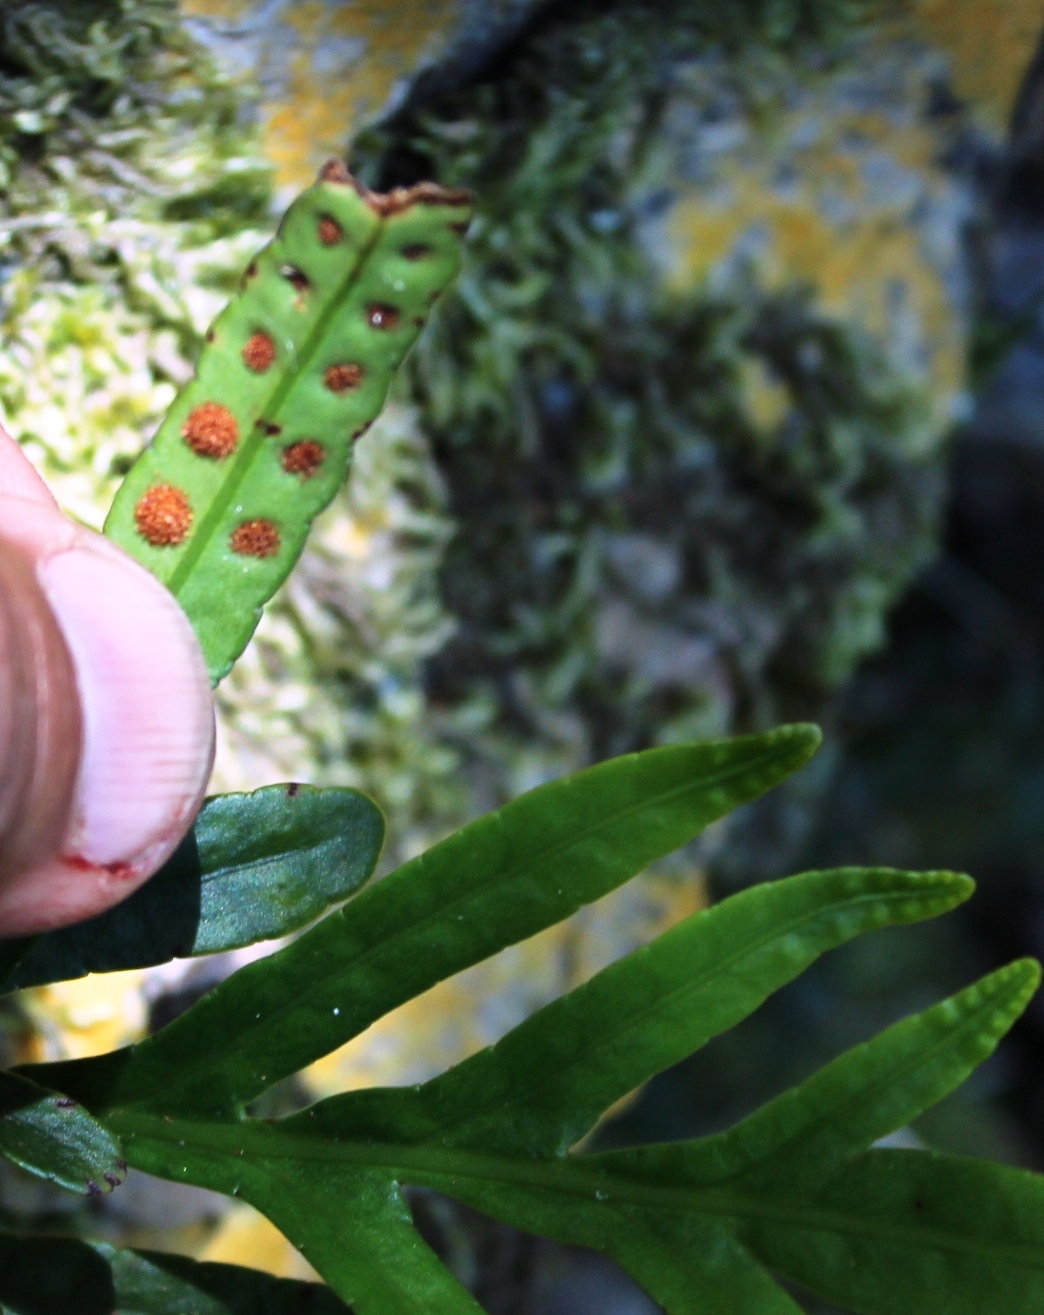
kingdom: Plantae
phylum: Tracheophyta
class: Polypodiopsida
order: Polypodiales
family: Polypodiaceae
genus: Polypodium
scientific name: Polypodium ensiforme
